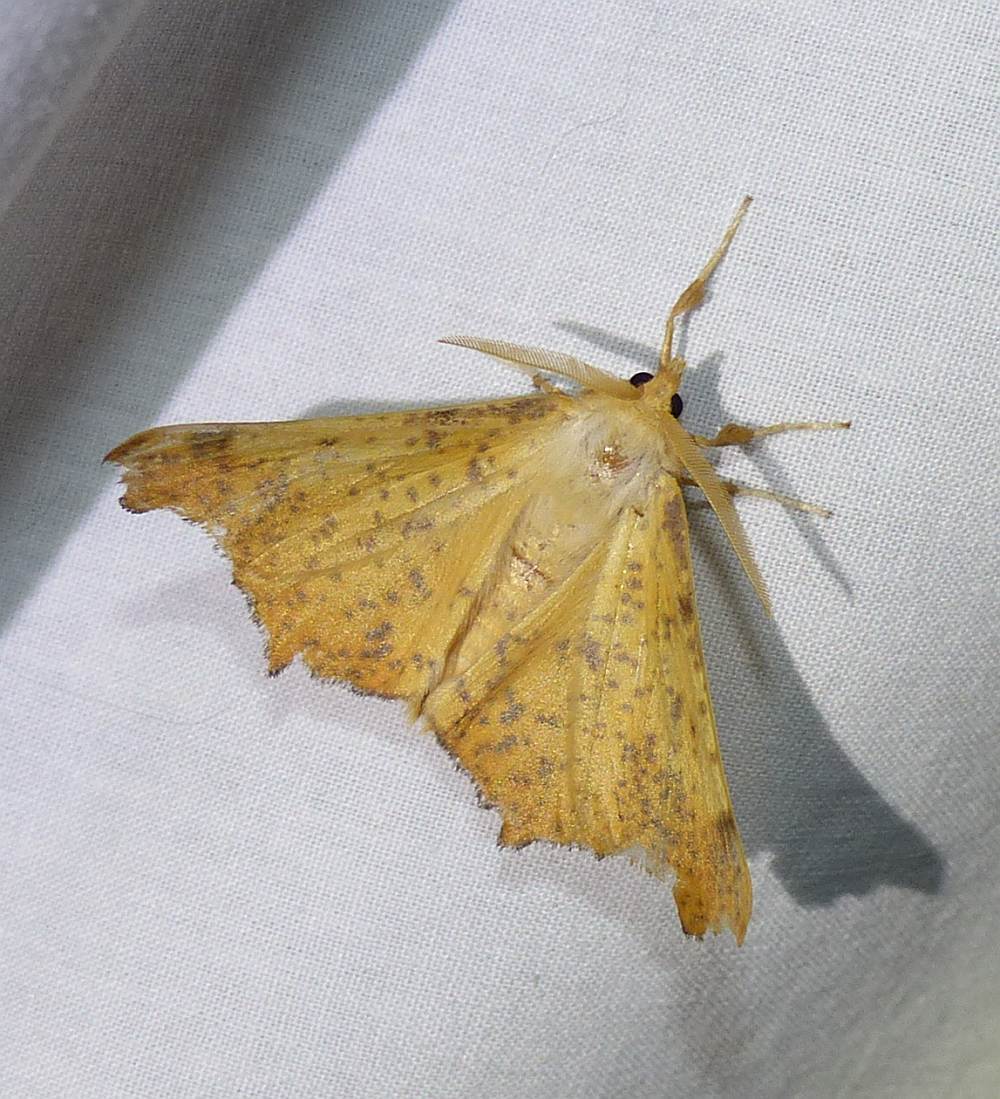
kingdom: Animalia
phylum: Arthropoda
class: Insecta
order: Lepidoptera
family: Geometridae
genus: Ennomos
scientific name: Ennomos magnaria
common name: Maple spanworm
